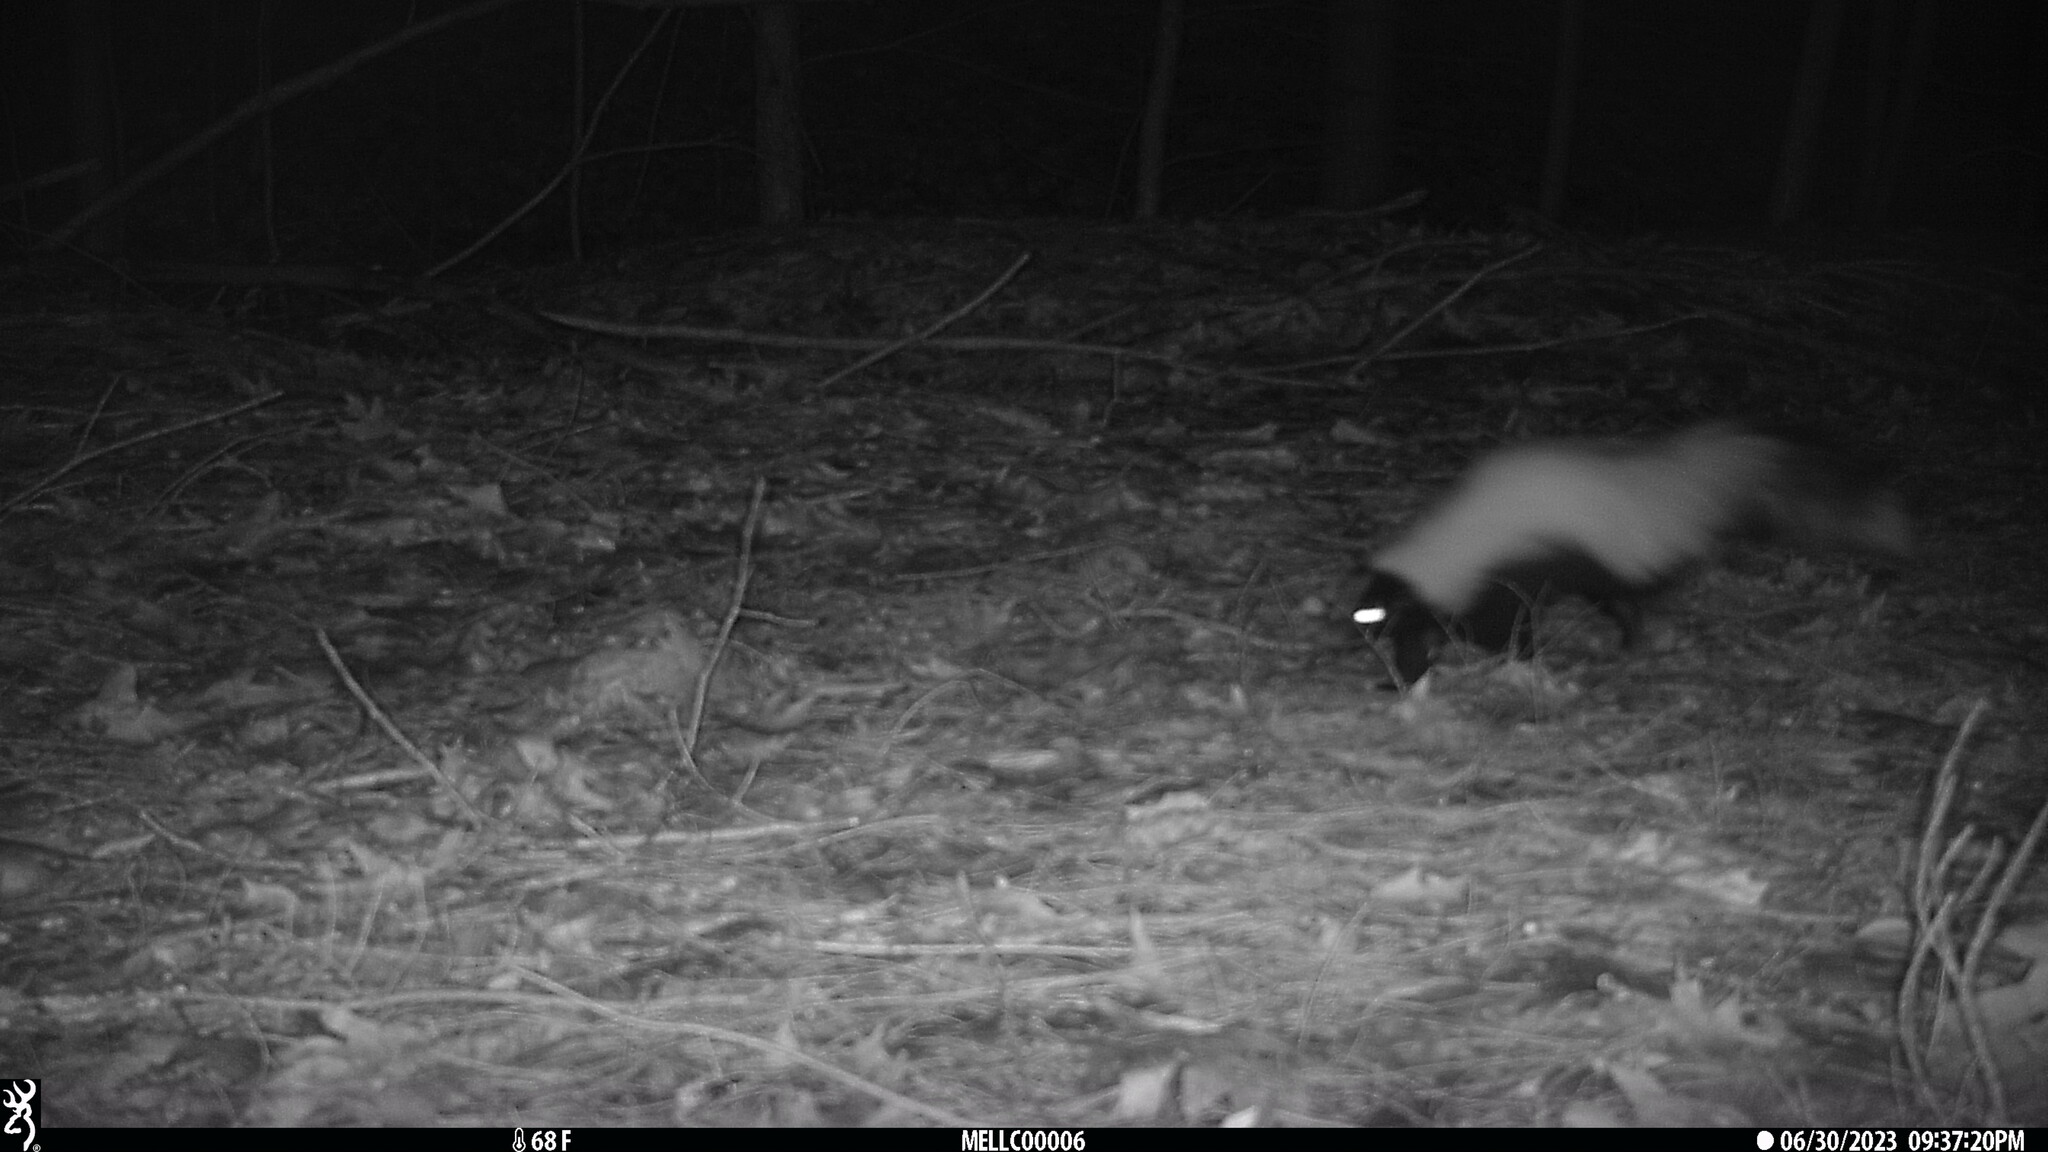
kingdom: Animalia
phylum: Chordata
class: Mammalia
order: Carnivora
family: Mephitidae
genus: Mephitis
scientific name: Mephitis mephitis
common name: Striped skunk
